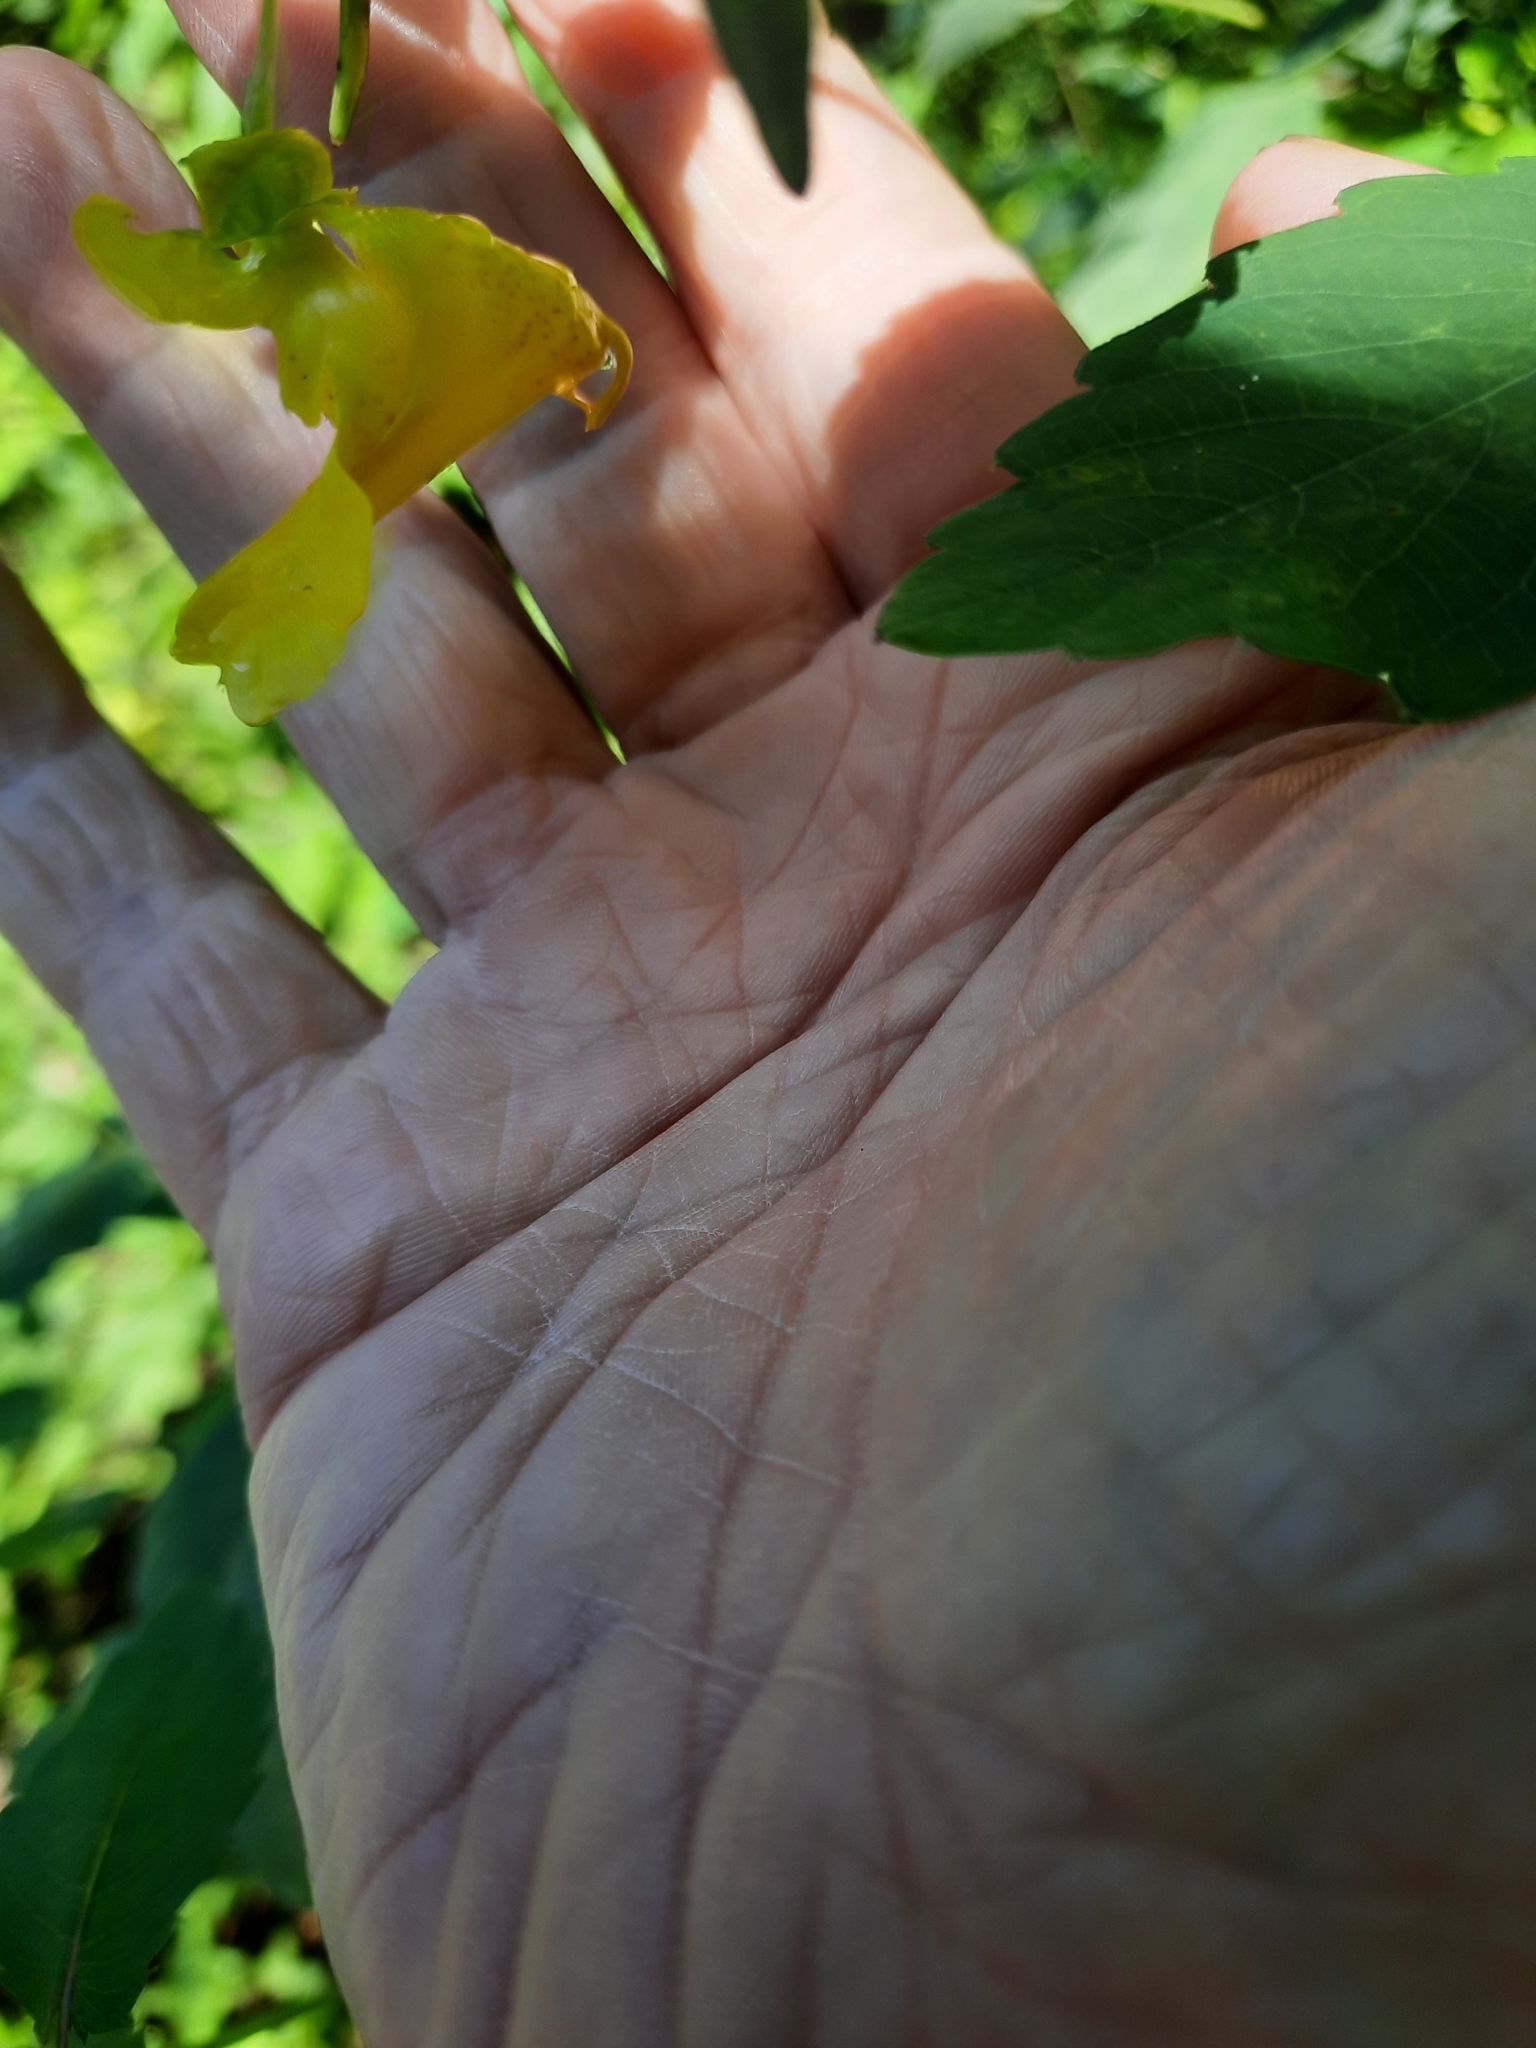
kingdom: Plantae
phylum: Tracheophyta
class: Magnoliopsida
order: Ericales
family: Balsaminaceae
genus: Impatiens
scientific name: Impatiens pallida
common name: Pale snapweed
